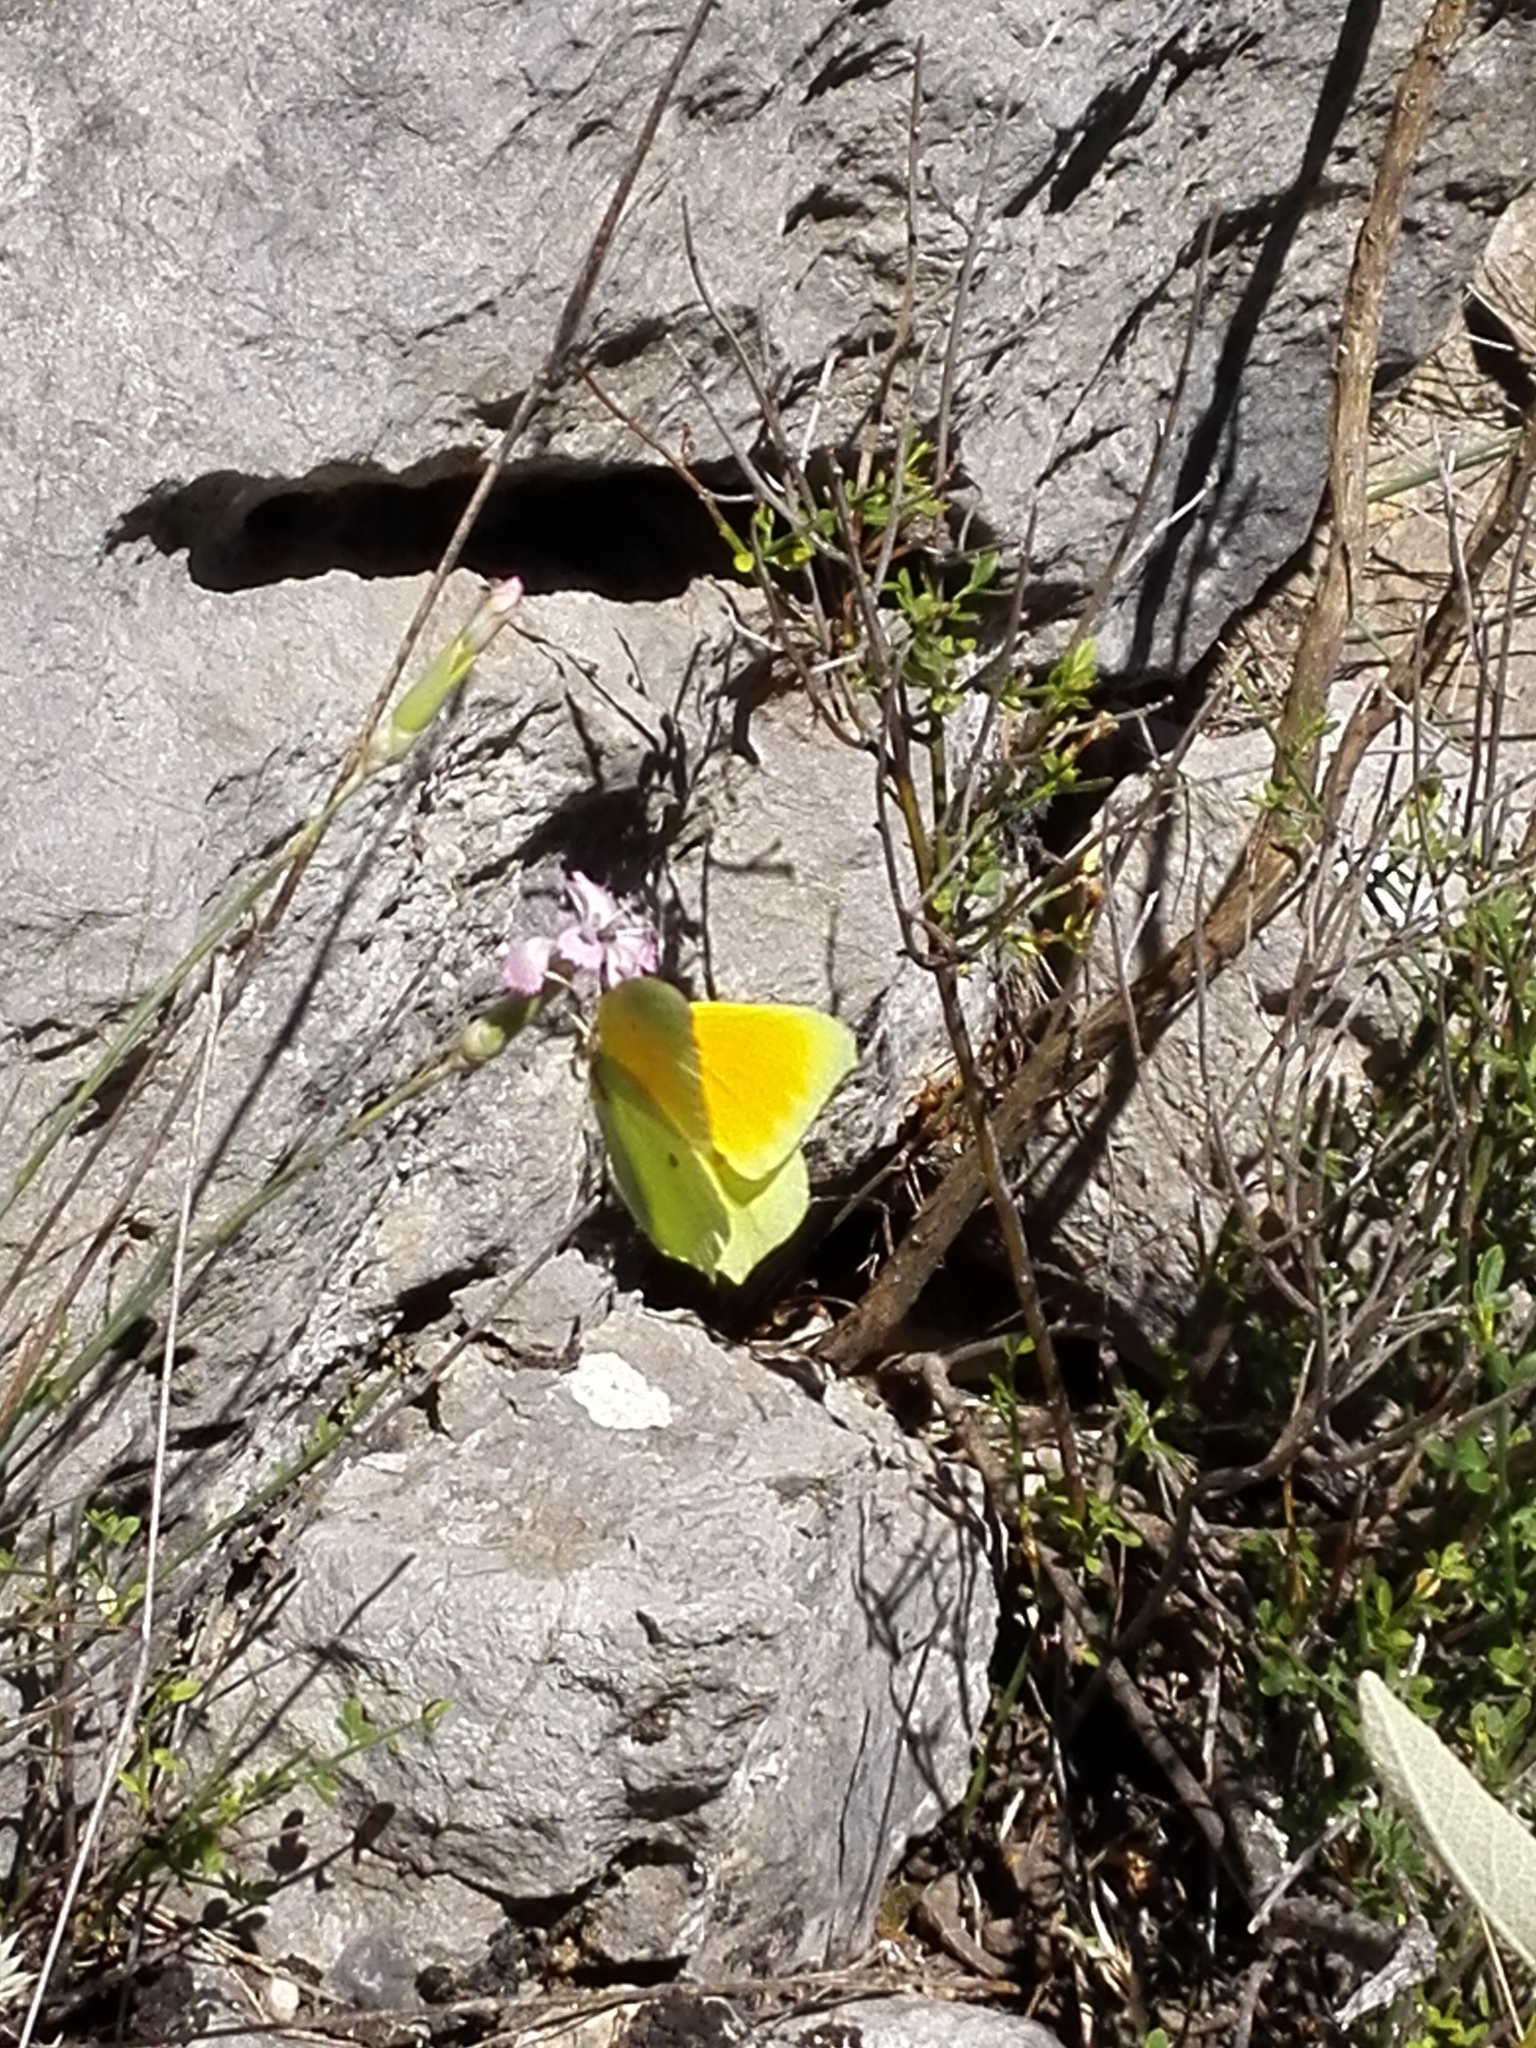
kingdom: Animalia
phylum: Arthropoda
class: Insecta
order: Lepidoptera
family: Pieridae
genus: Gonepteryx
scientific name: Gonepteryx cleopatra
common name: Cleopatra
